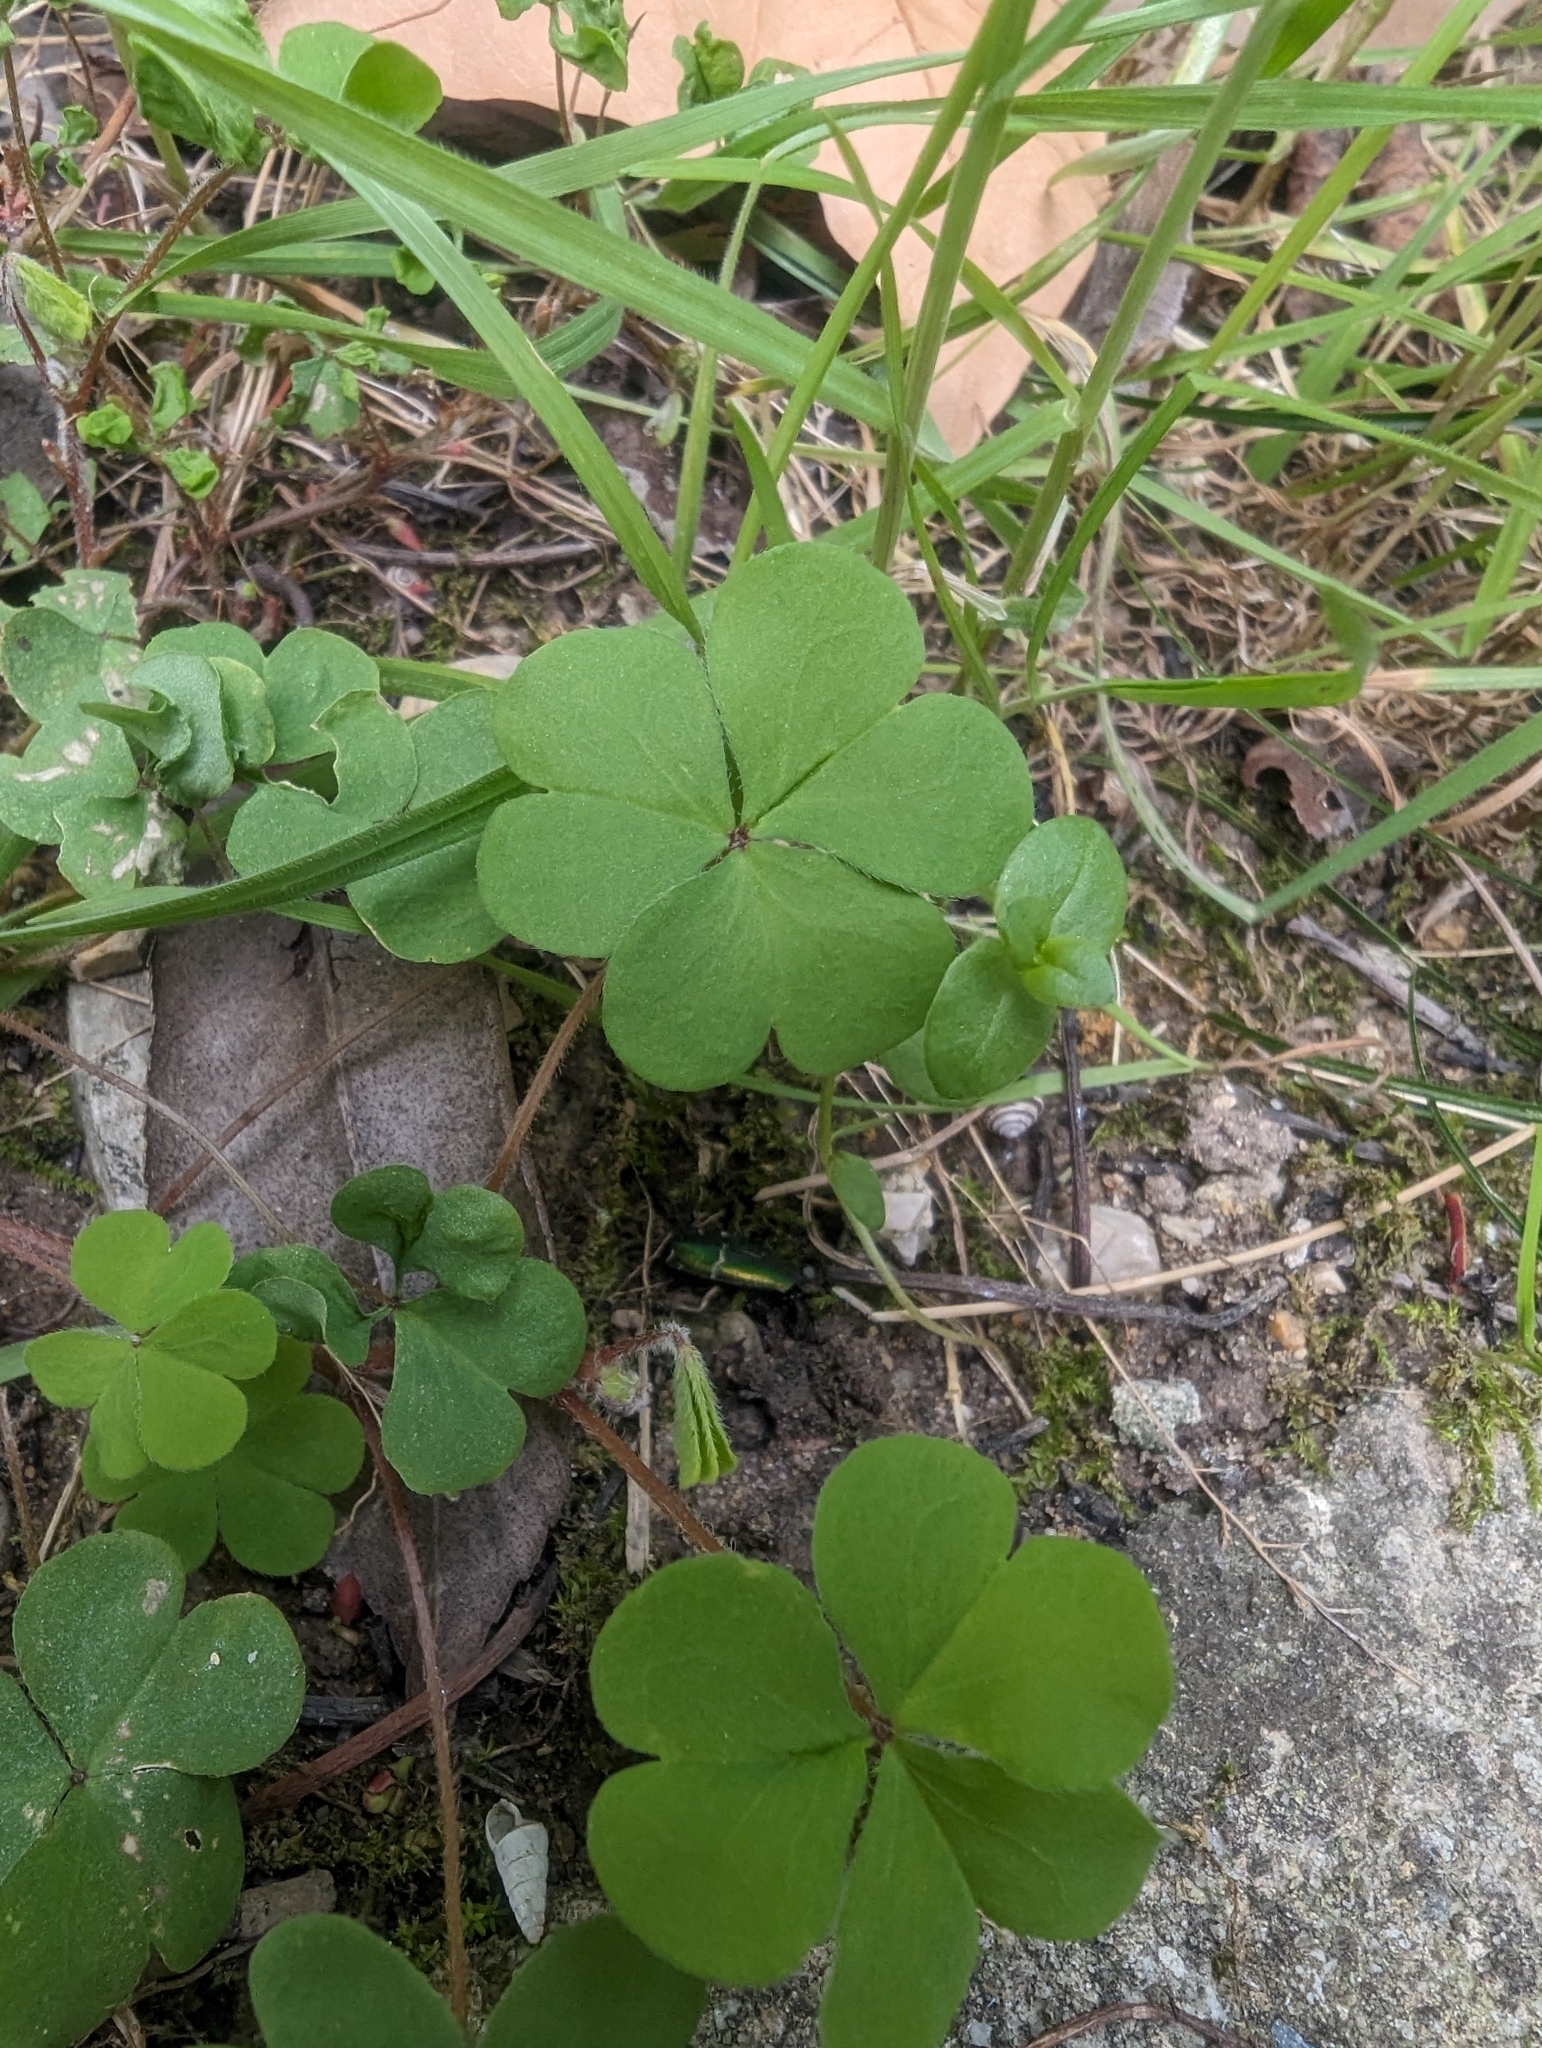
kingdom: Plantae
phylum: Tracheophyta
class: Magnoliopsida
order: Oxalidales
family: Oxalidaceae
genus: Oxalis
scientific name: Oxalis corniculata
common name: Procumbent yellow-sorrel
